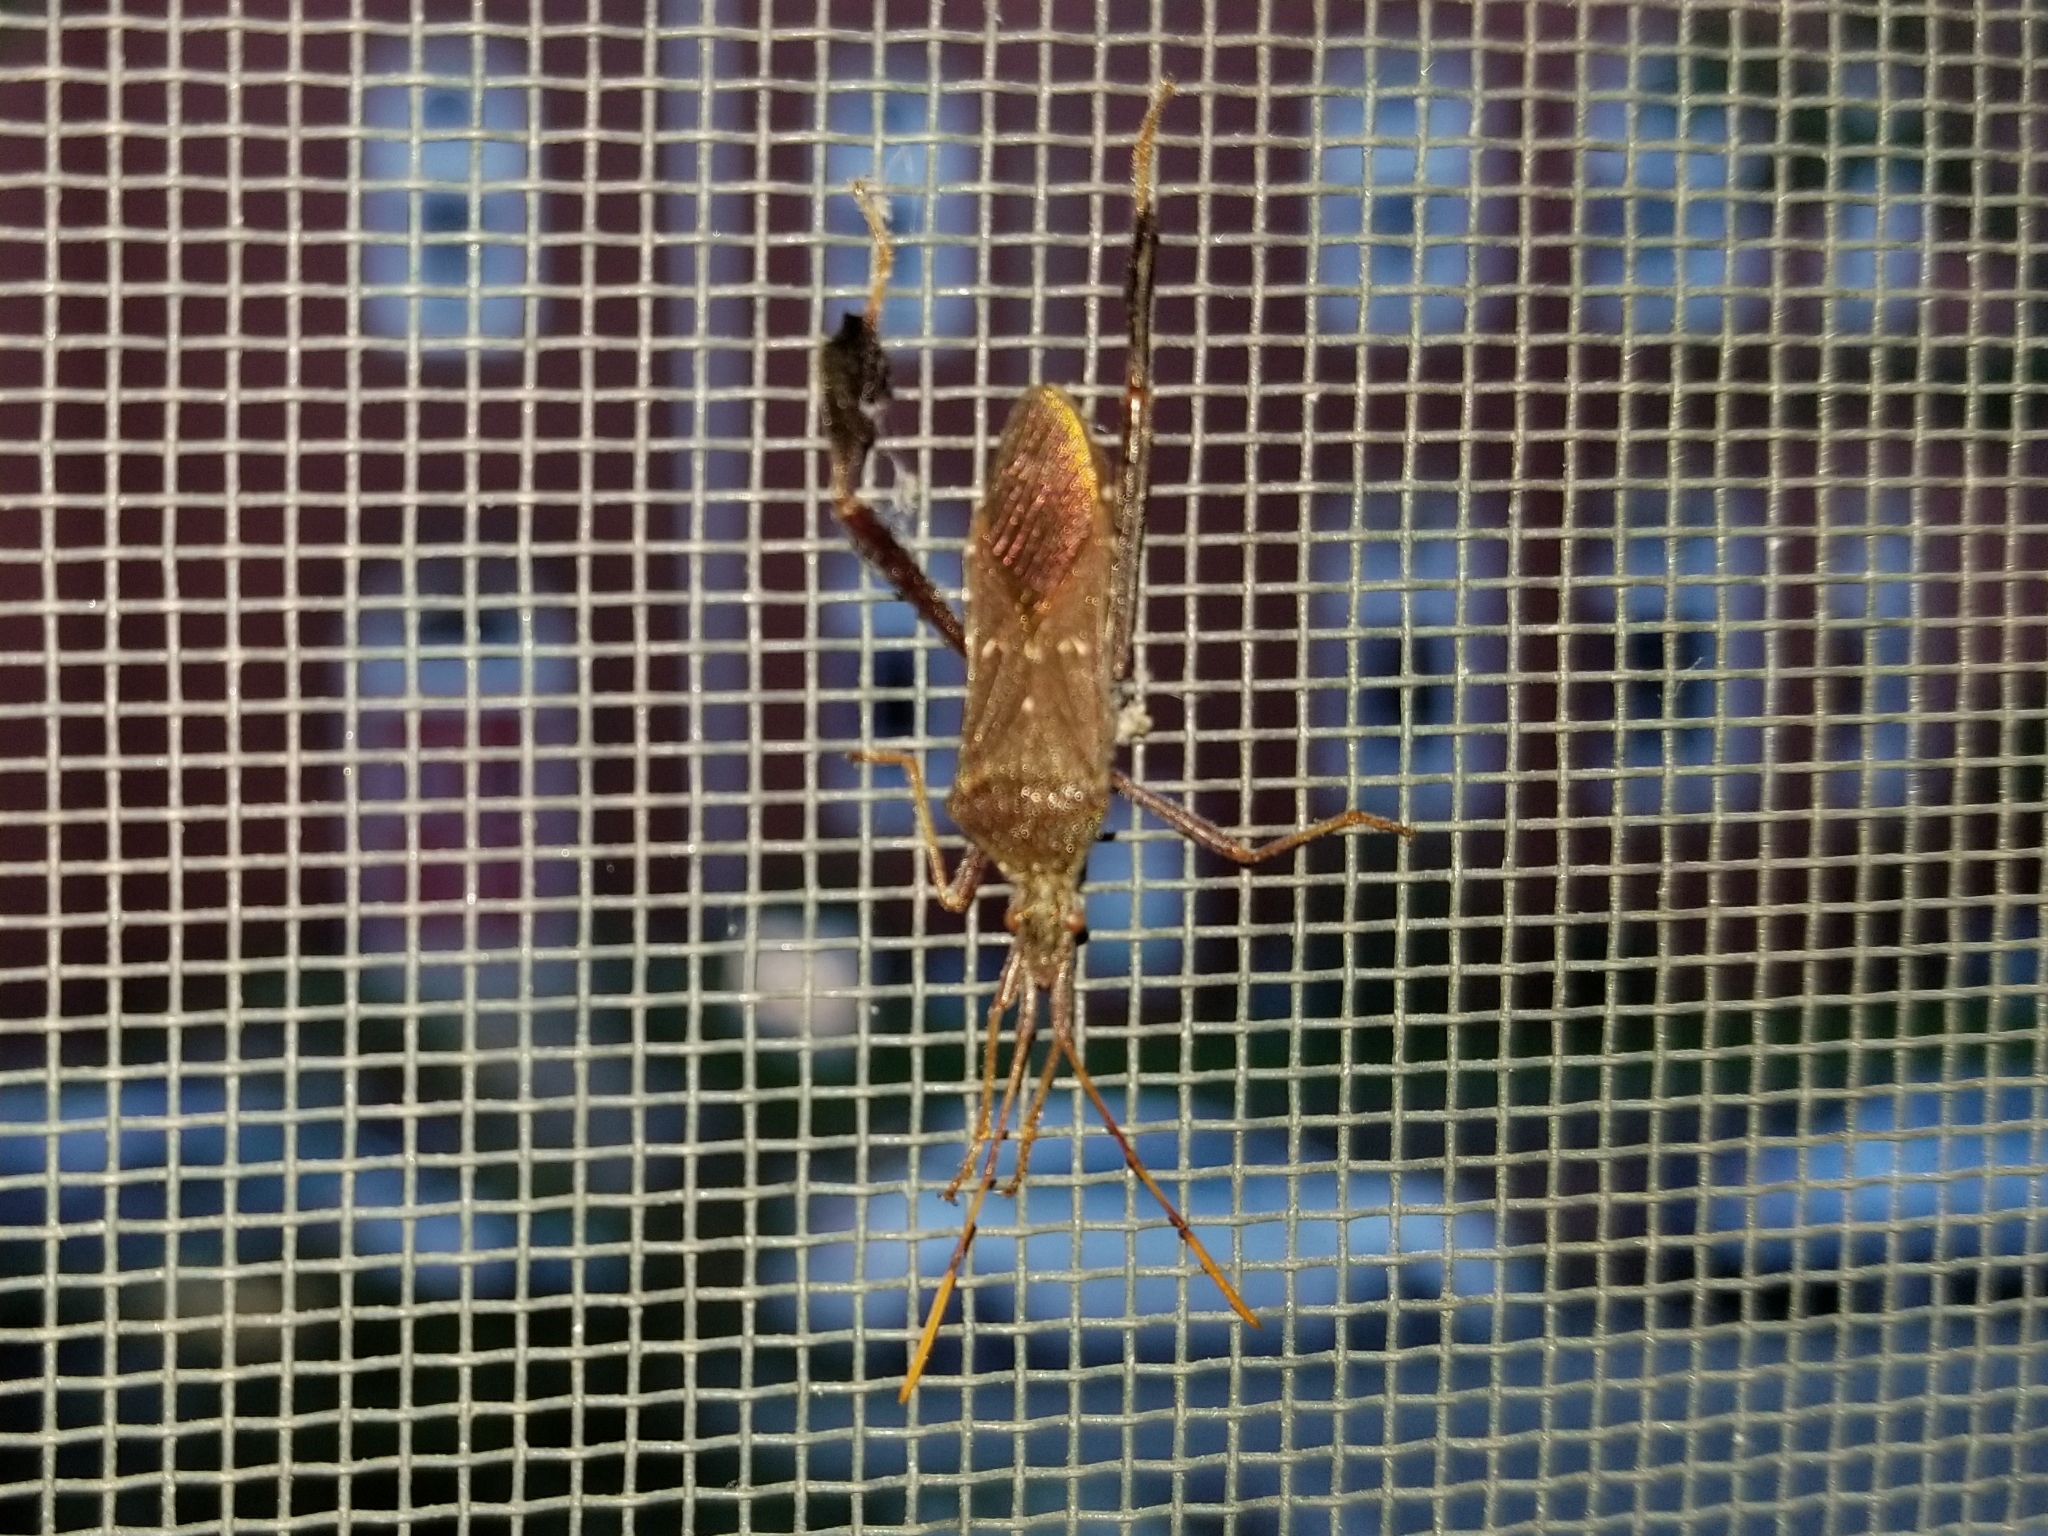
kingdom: Animalia
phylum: Arthropoda
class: Insecta
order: Hemiptera
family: Coreidae
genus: Leptoglossus
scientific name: Leptoglossus oppositus
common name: Northern leaf-footed bug
